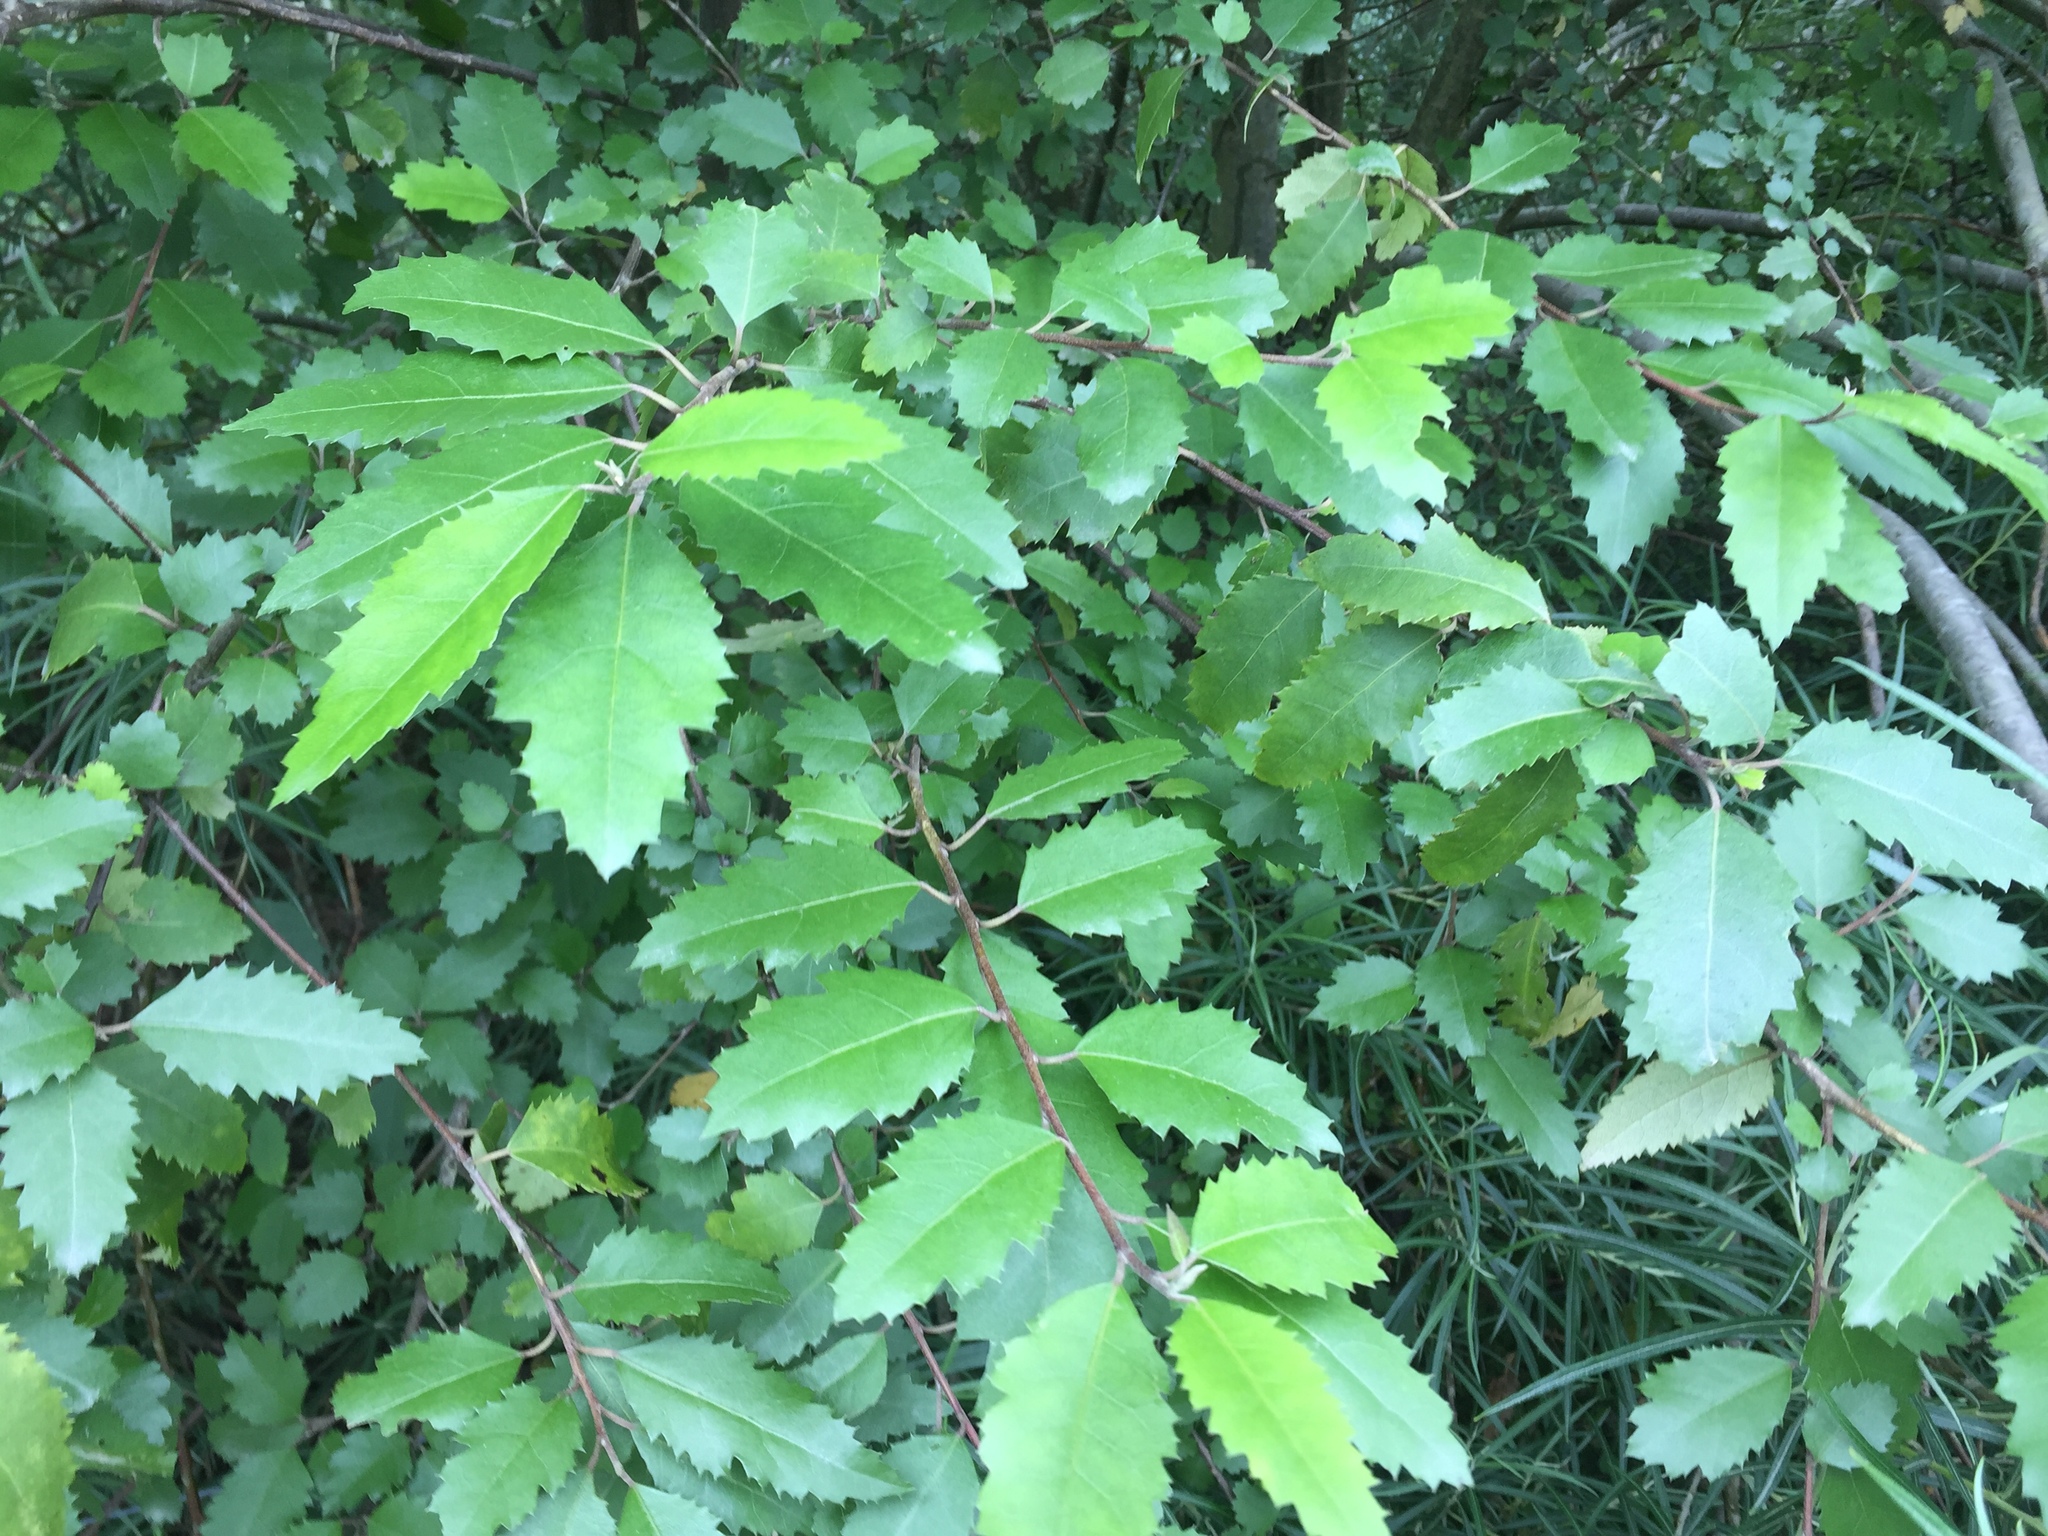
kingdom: Plantae
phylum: Tracheophyta
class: Magnoliopsida
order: Malvales
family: Malvaceae
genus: Hoheria
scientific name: Hoheria sexstylosa
